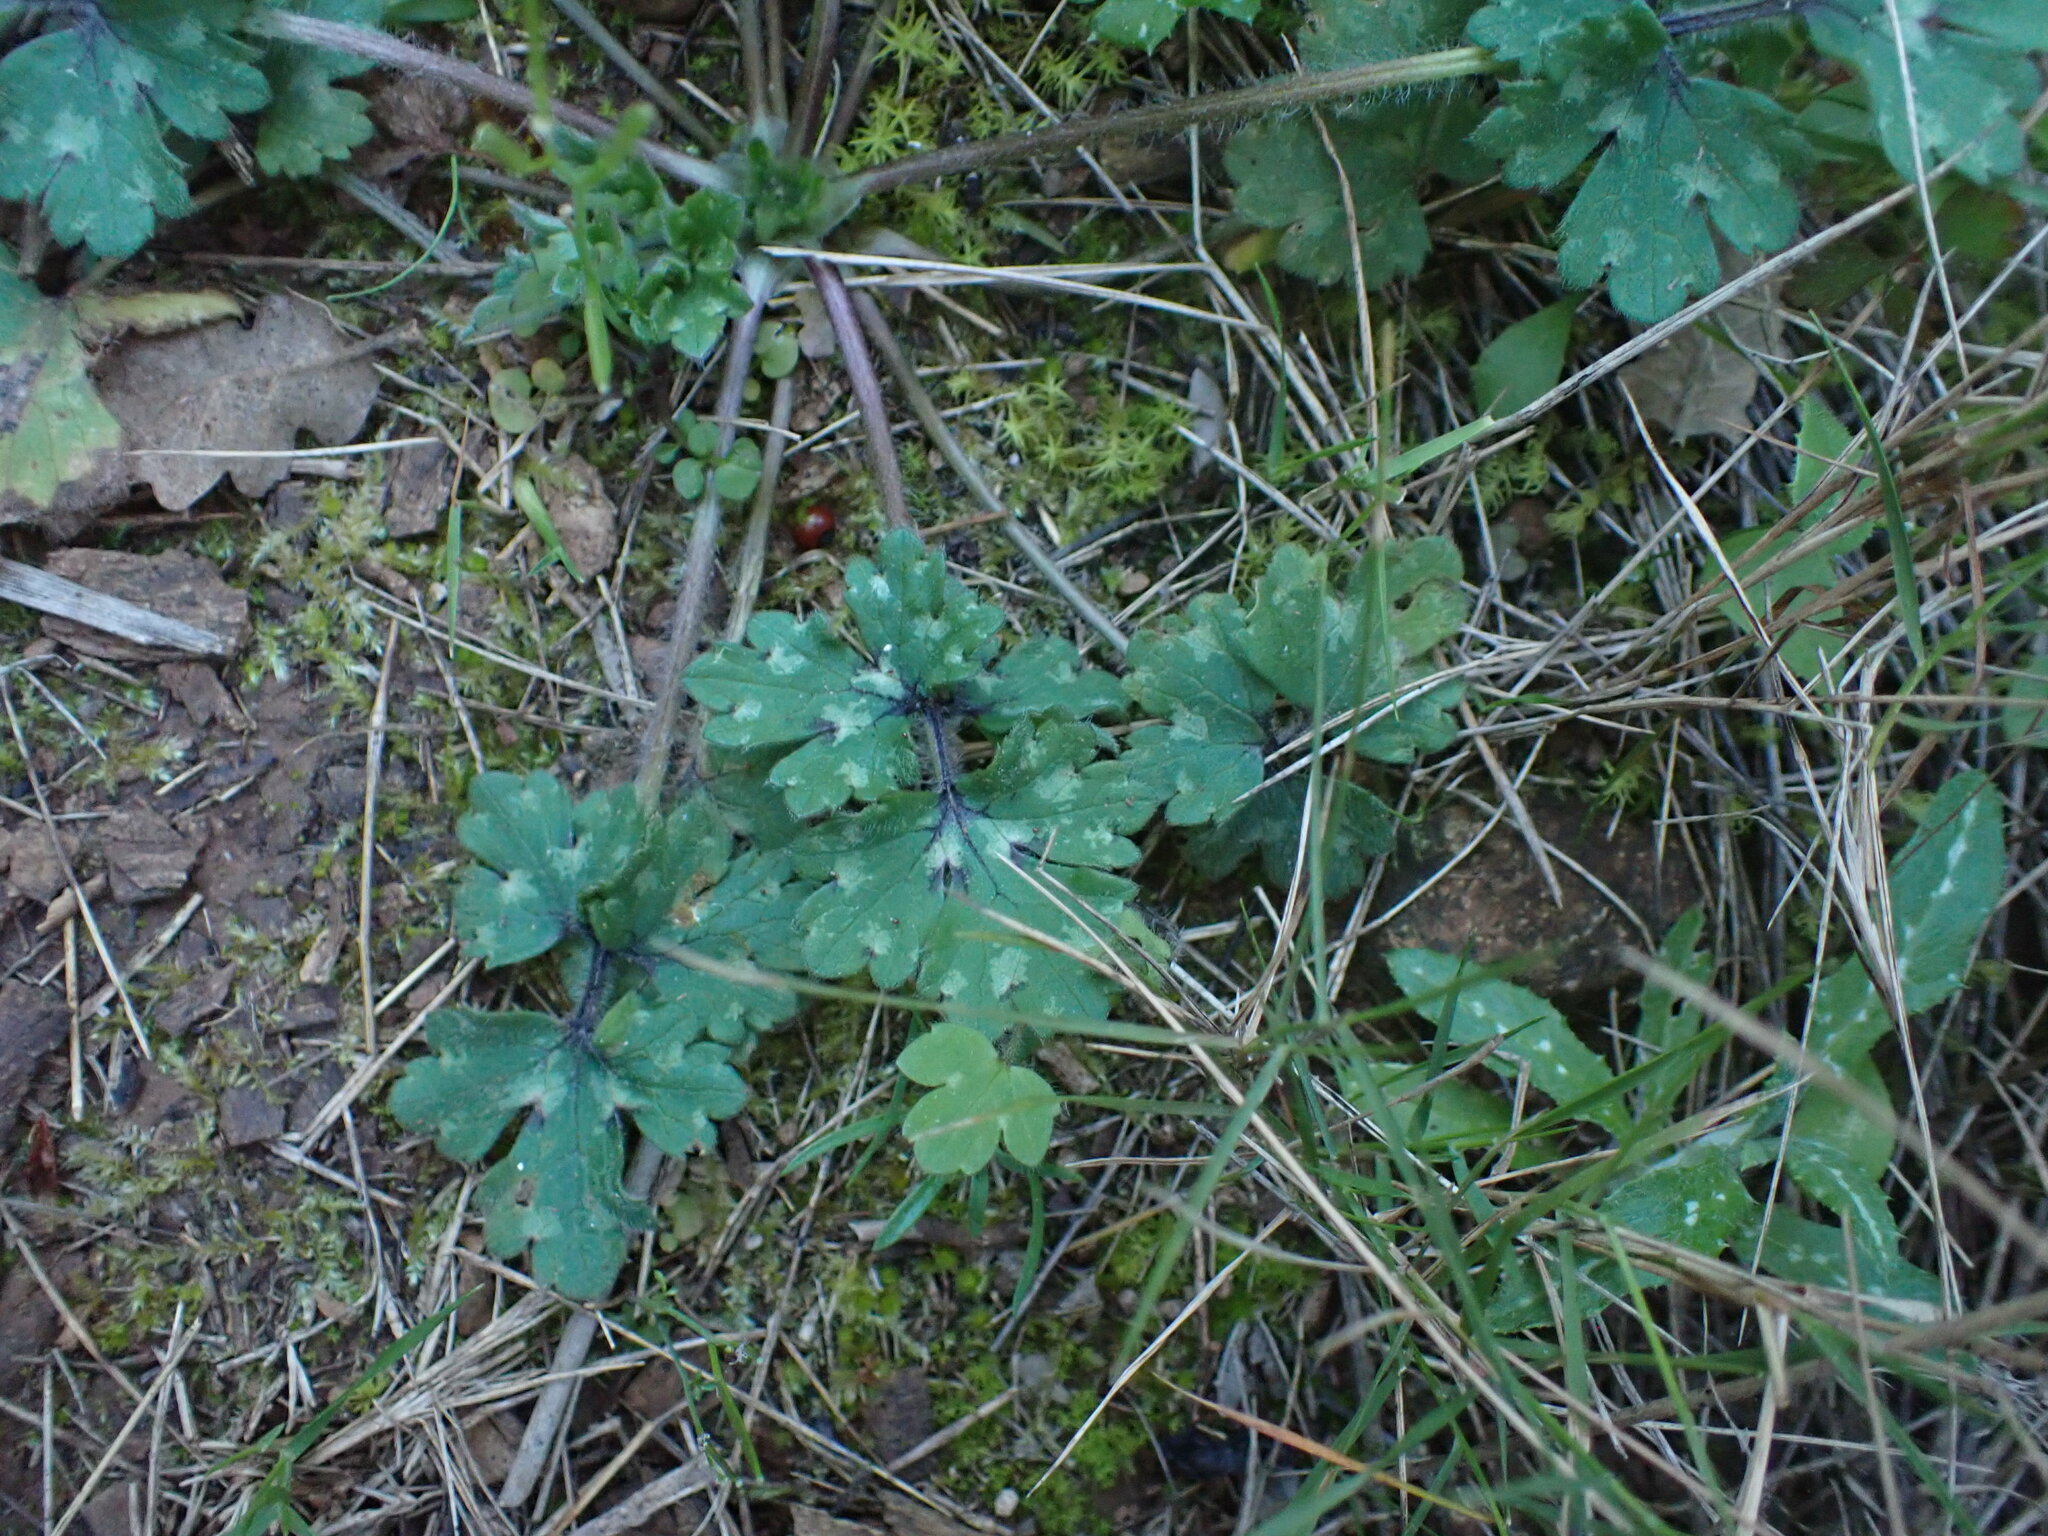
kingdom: Plantae
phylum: Tracheophyta
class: Magnoliopsida
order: Ranunculales
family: Ranunculaceae
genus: Ranunculus
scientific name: Ranunculus bulbosus
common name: Bulbous buttercup
